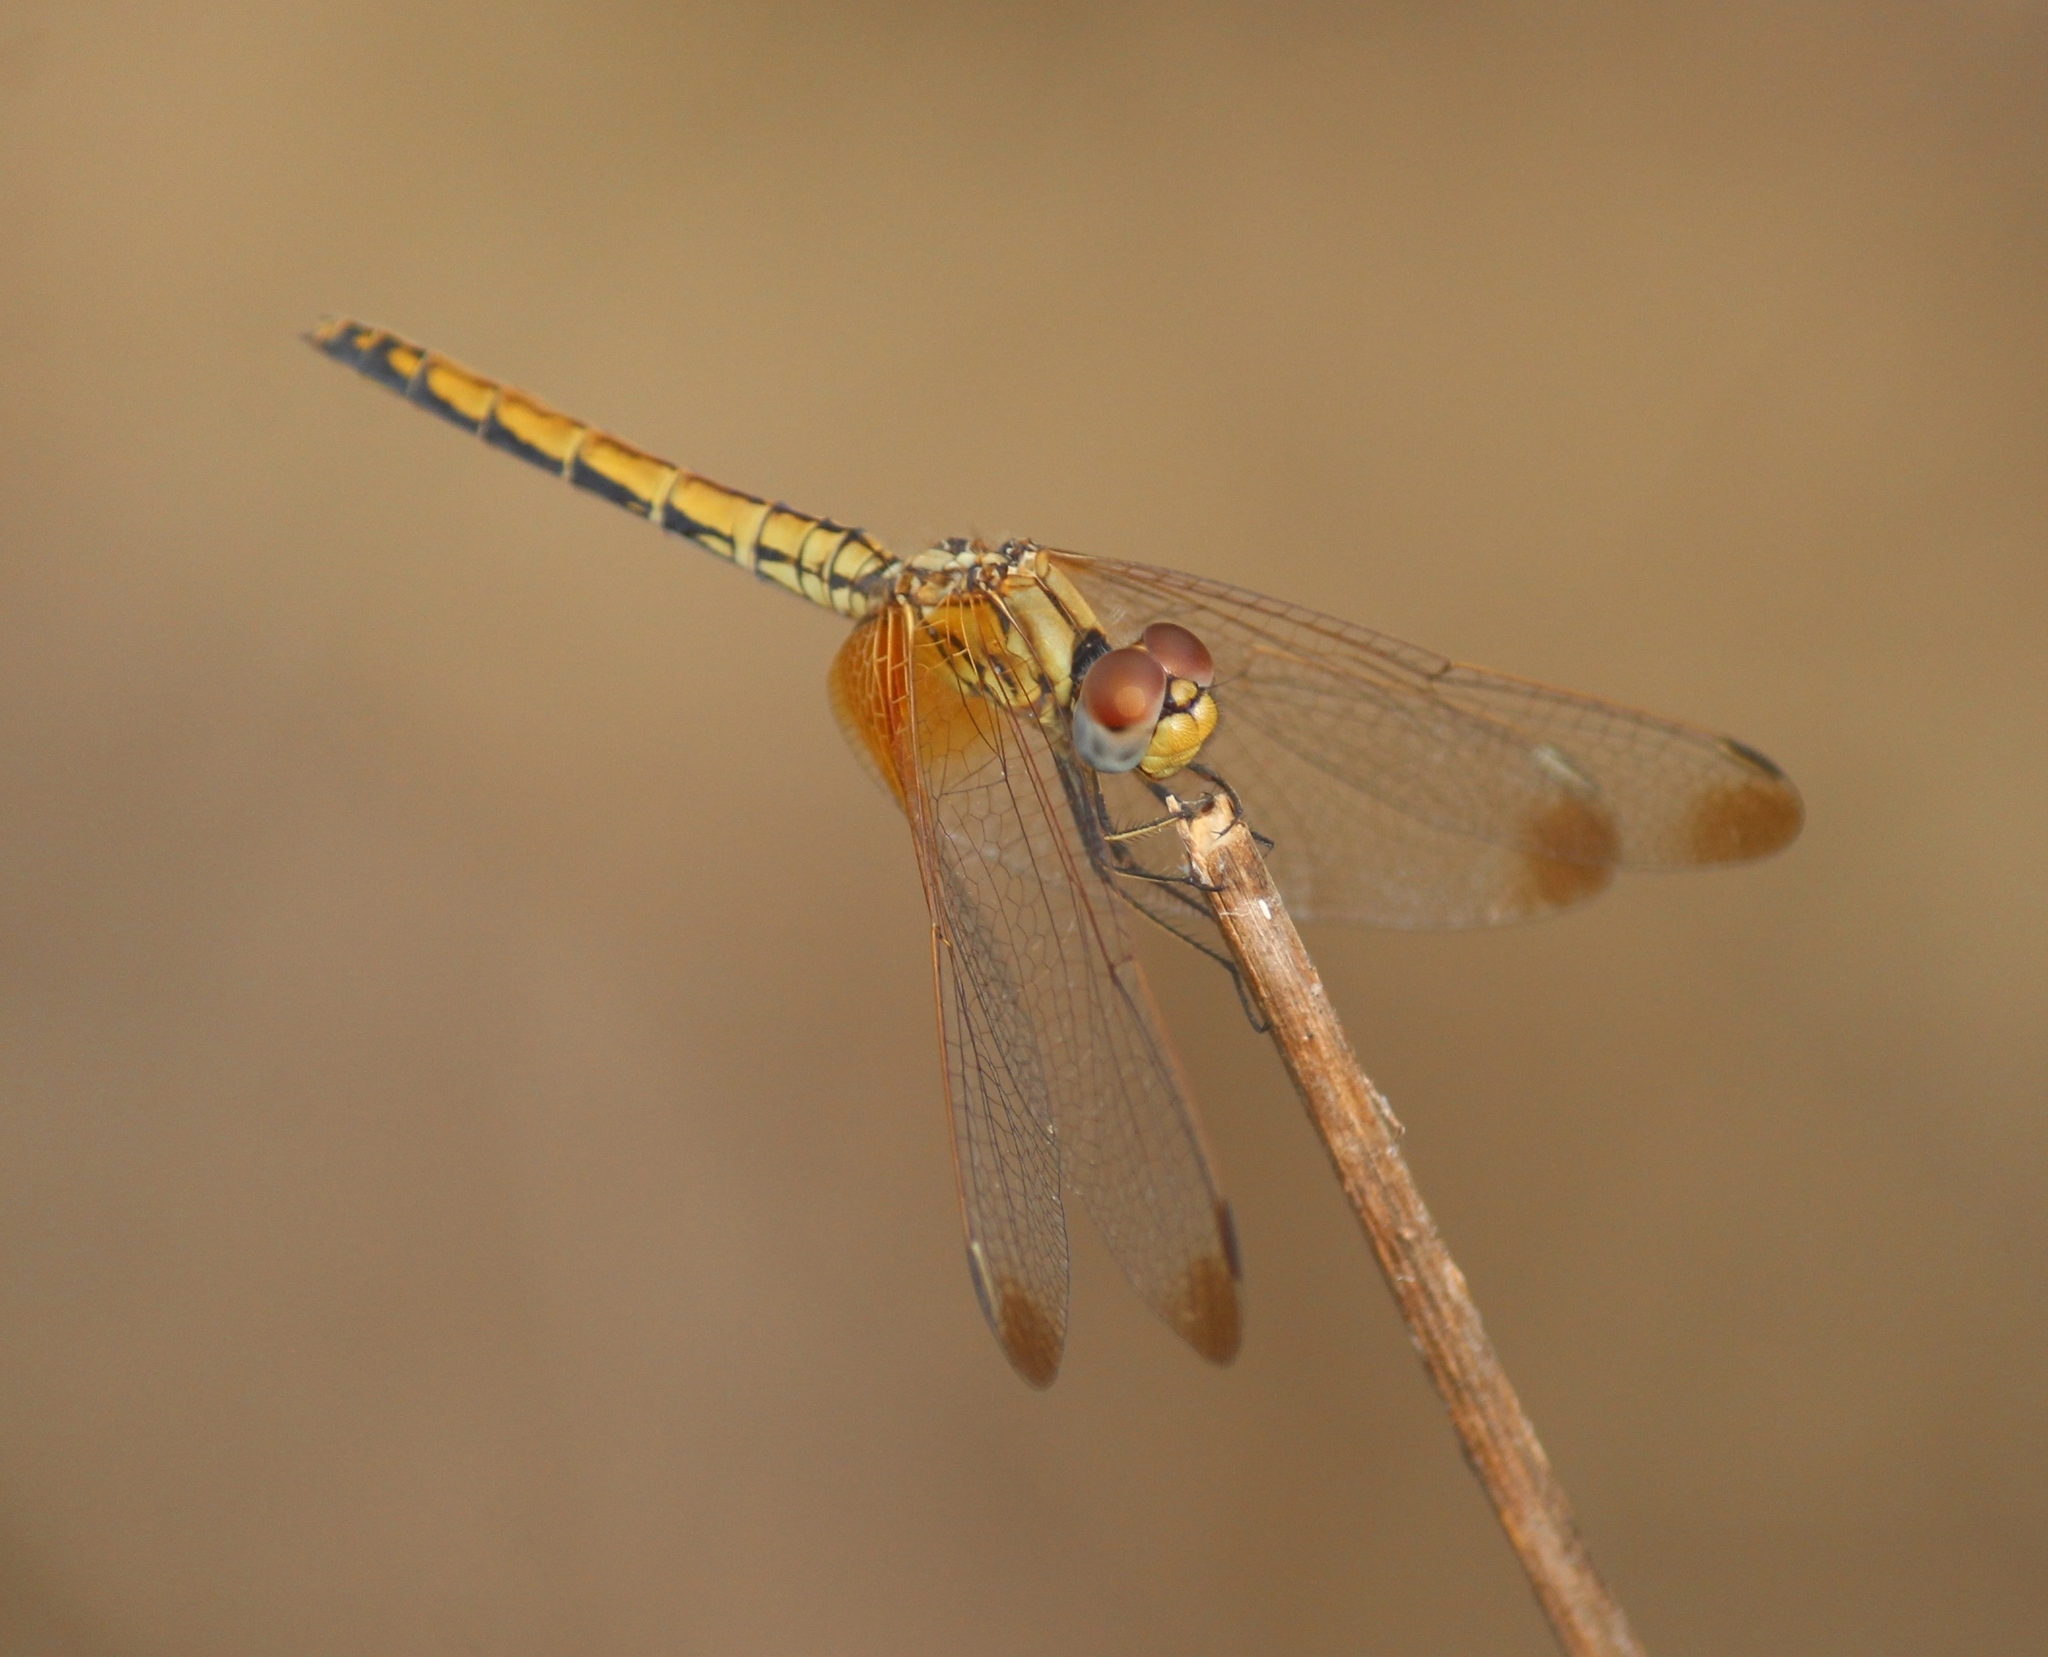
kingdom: Animalia
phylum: Arthropoda
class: Insecta
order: Odonata
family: Libellulidae
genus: Trithemis
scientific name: Trithemis aurora
